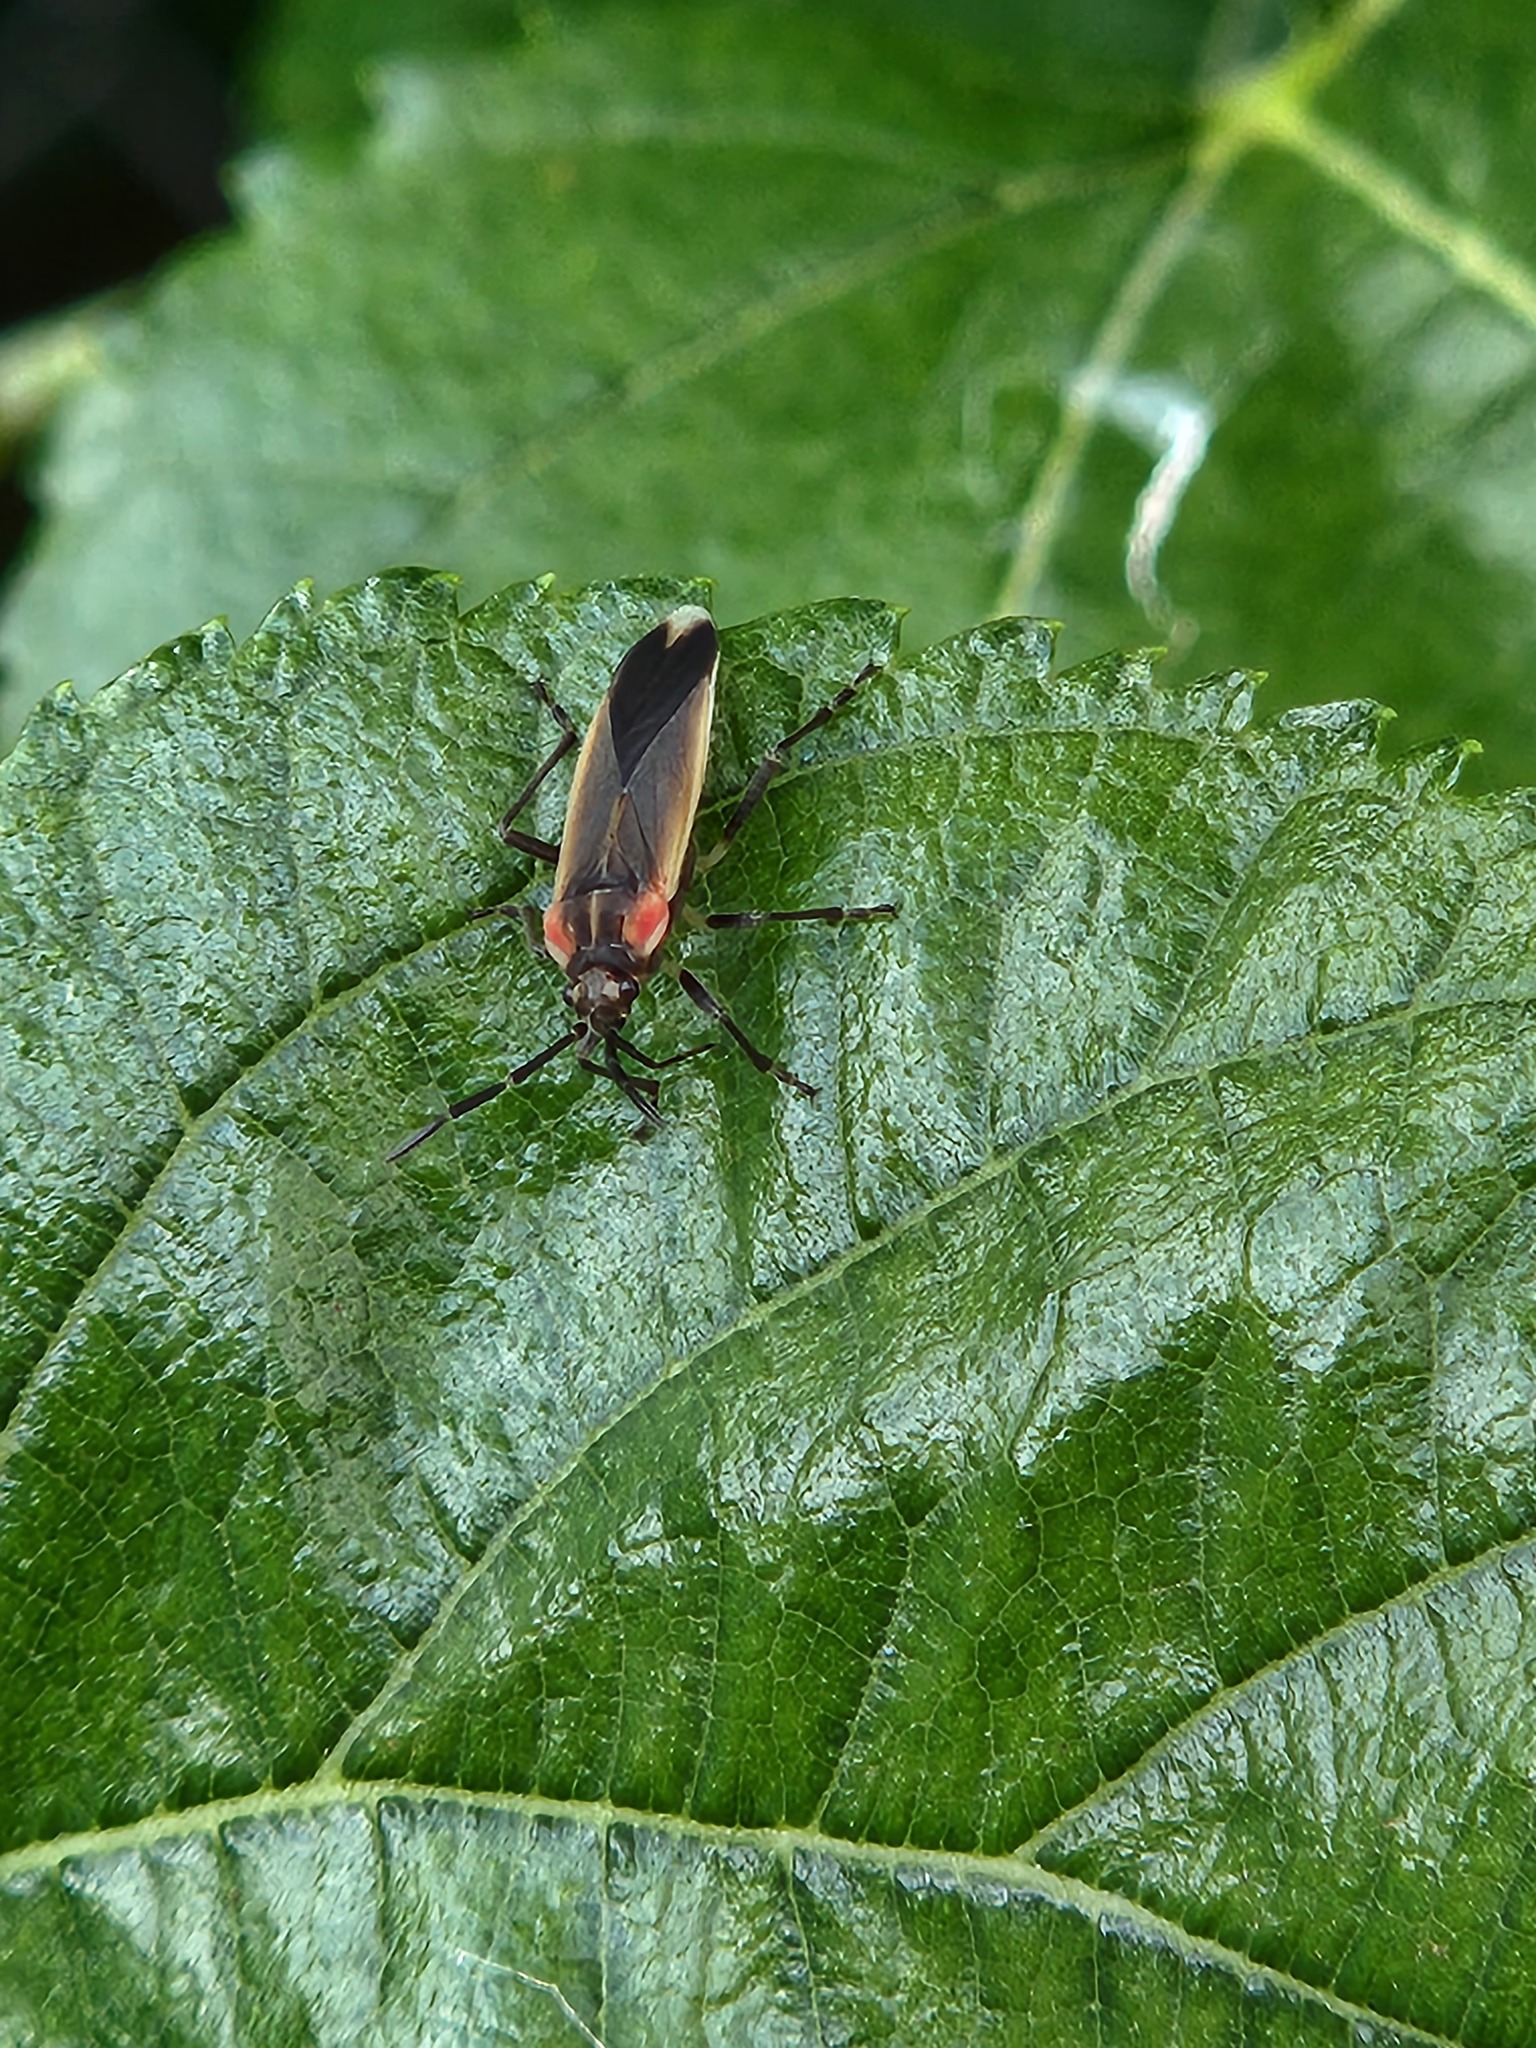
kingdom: Animalia
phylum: Arthropoda
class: Insecta
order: Hemiptera
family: Lygaeidae
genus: Acroleucus
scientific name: Acroleucus coxalis
